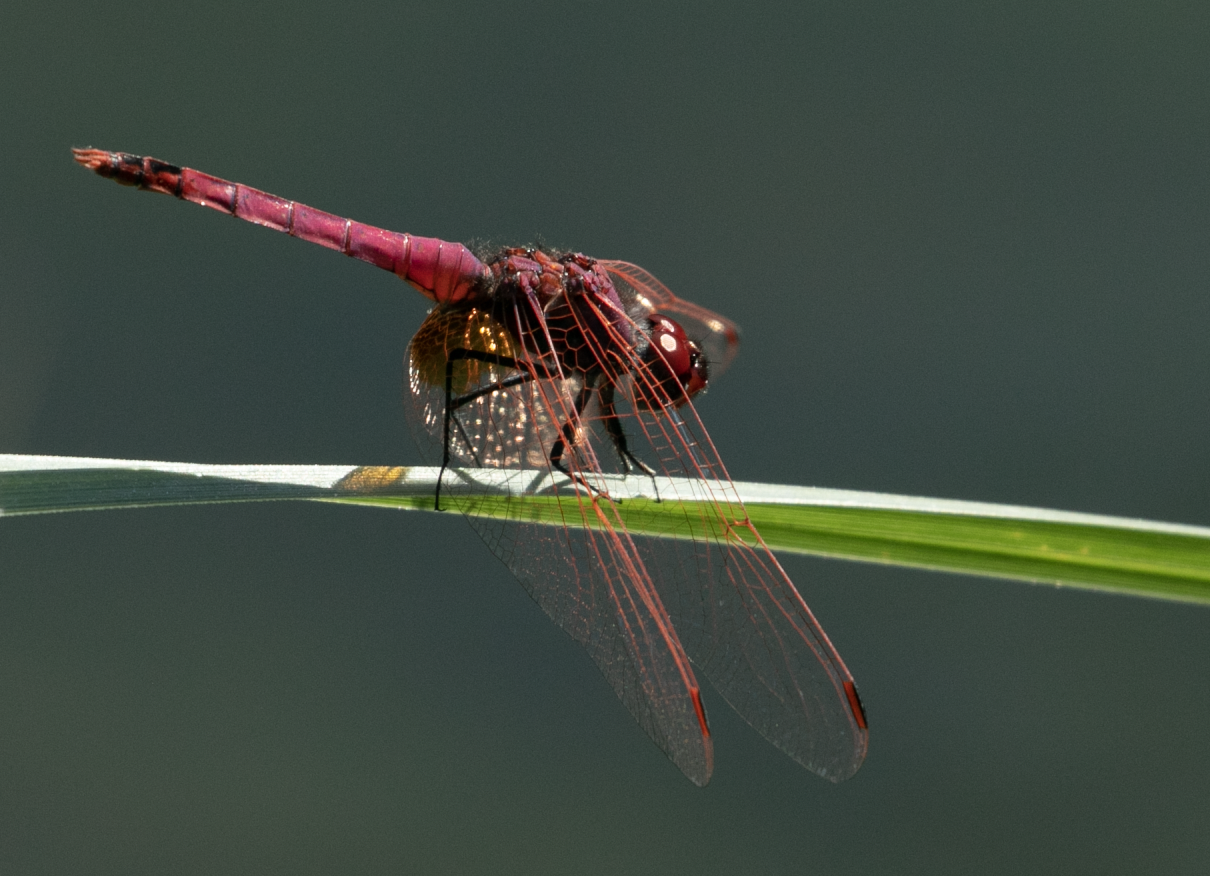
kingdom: Animalia
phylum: Arthropoda
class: Insecta
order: Odonata
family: Libellulidae
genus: Trithemis
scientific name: Trithemis annulata
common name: Violet dropwing
